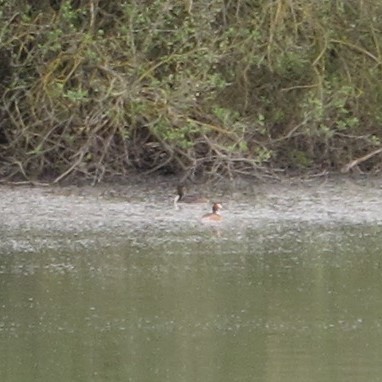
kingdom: Animalia
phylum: Chordata
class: Aves
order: Podicipediformes
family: Podicipedidae
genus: Podiceps
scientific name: Podiceps cristatus
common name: Great crested grebe
